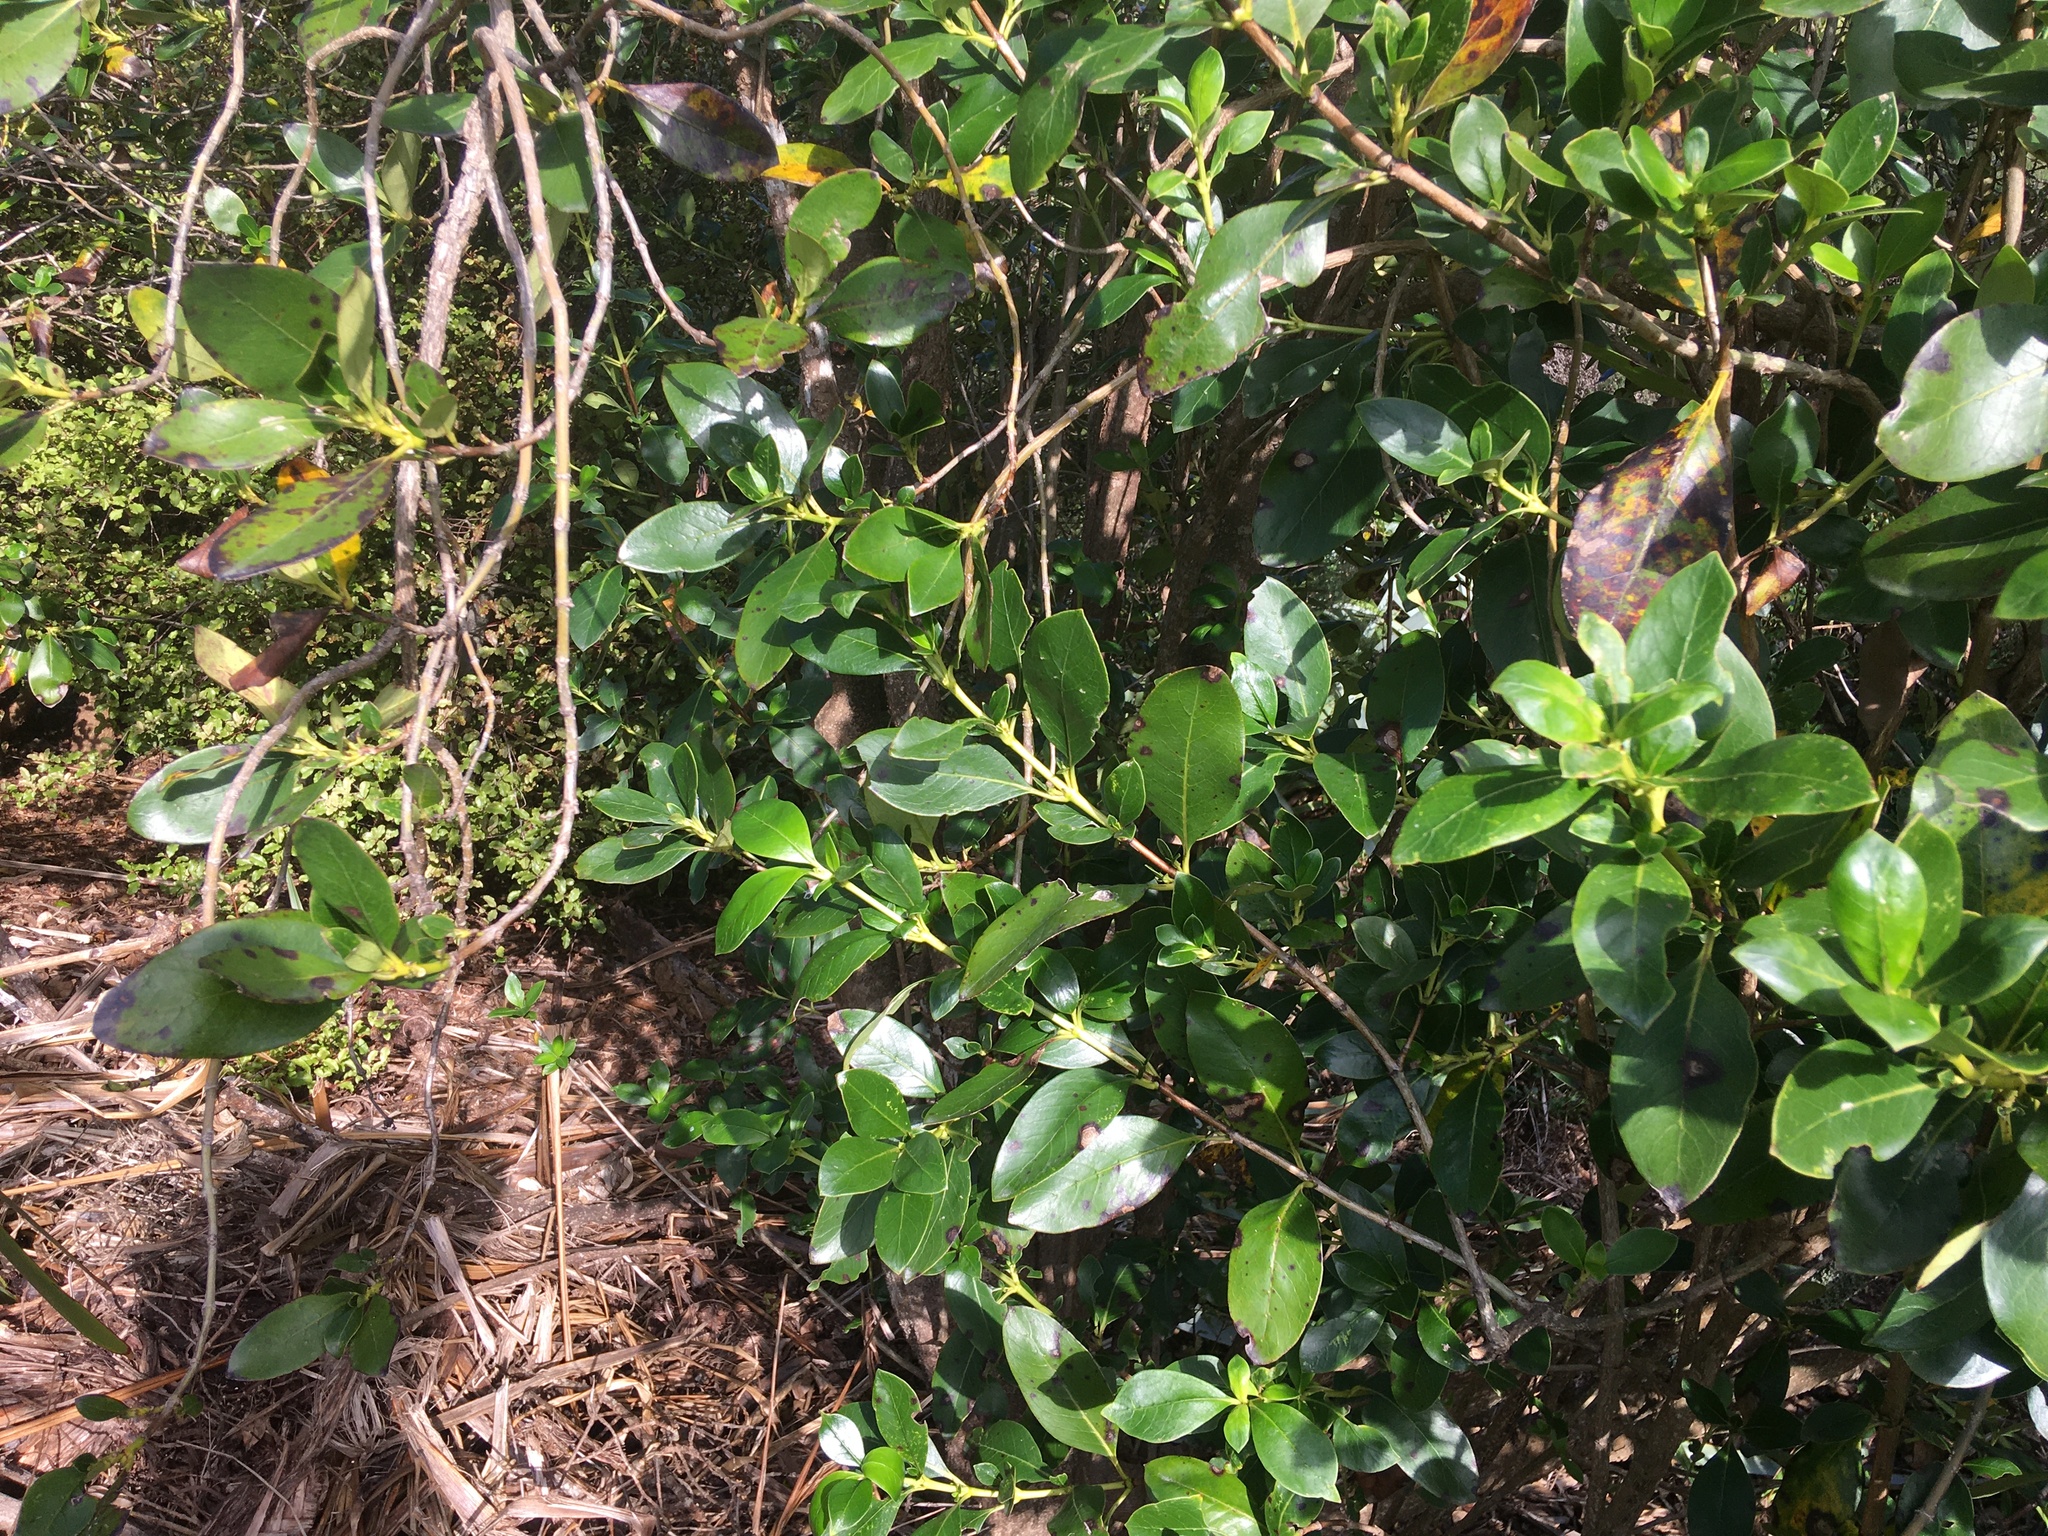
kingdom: Plantae
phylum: Tracheophyta
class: Magnoliopsida
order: Gentianales
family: Rubiaceae
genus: Coprosma
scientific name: Coprosma robusta
